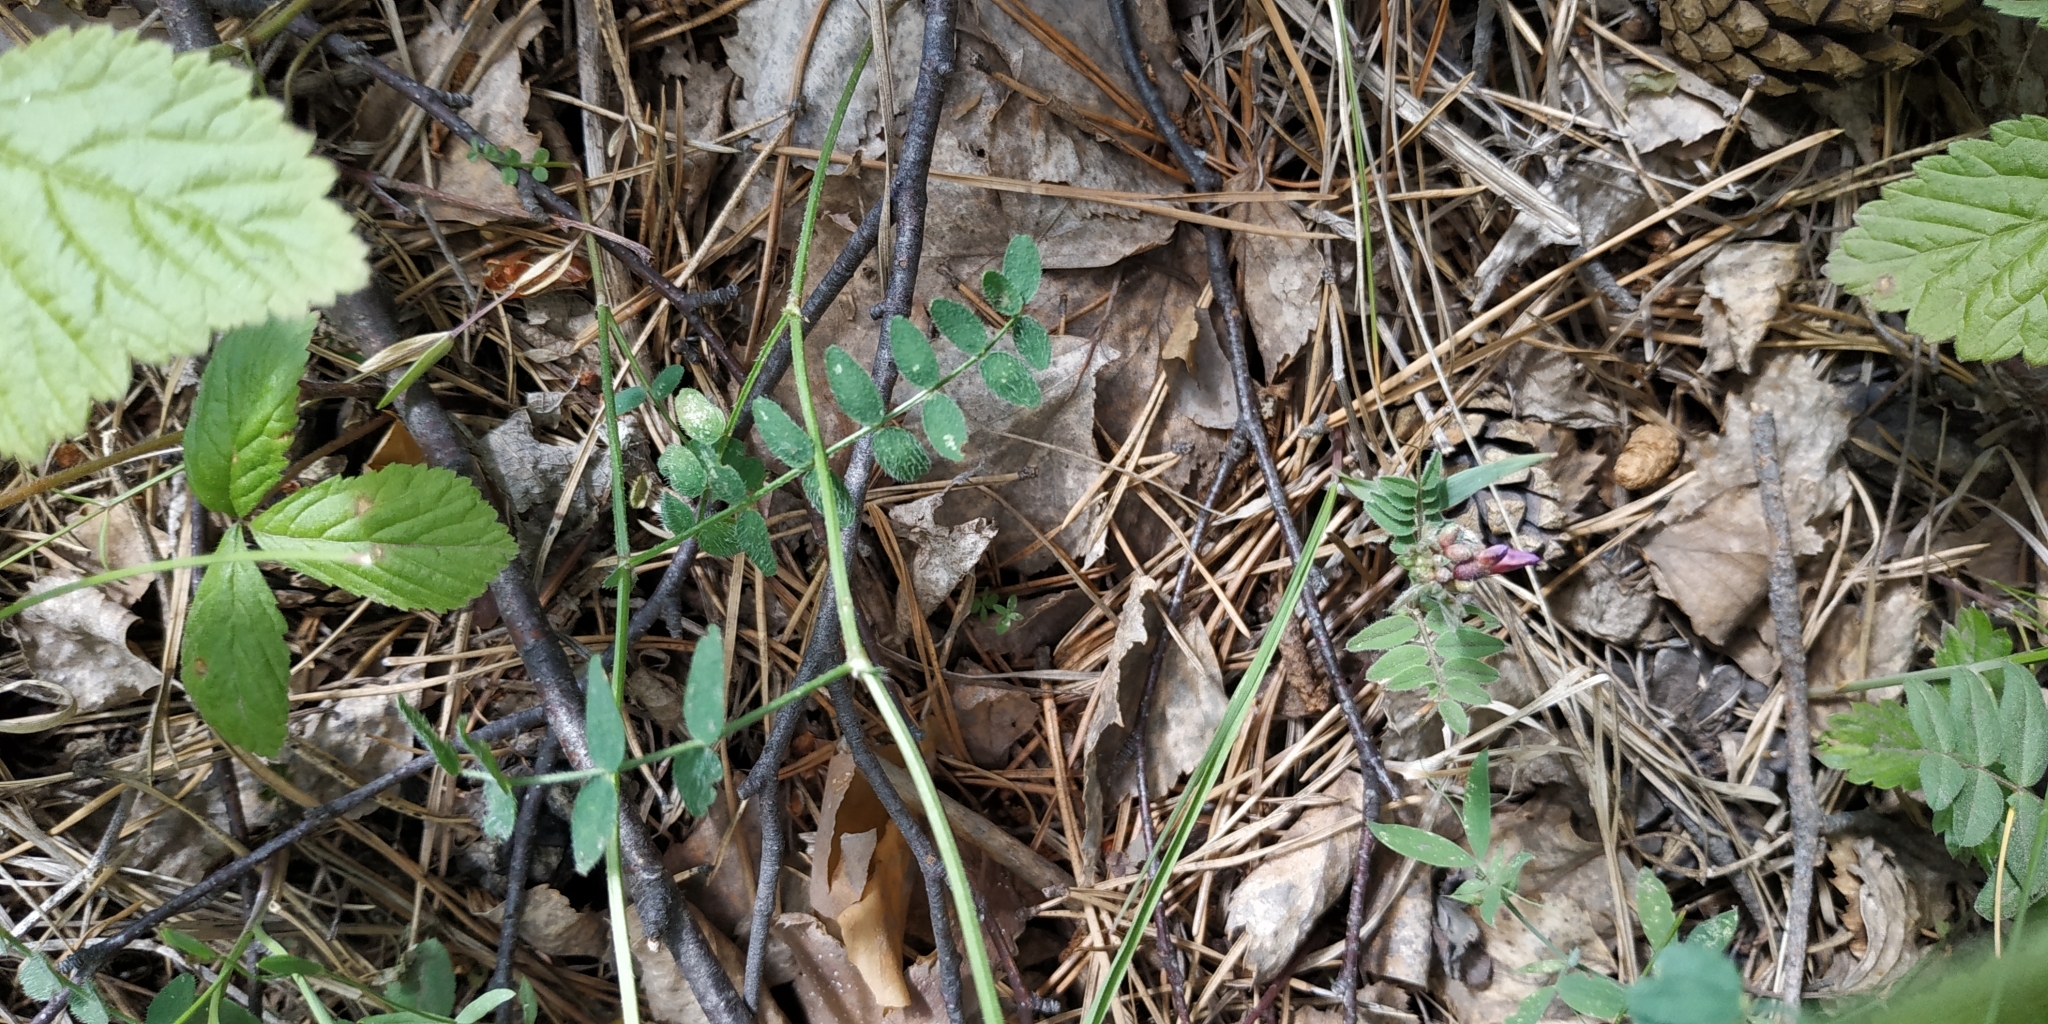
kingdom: Plantae
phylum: Tracheophyta
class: Magnoliopsida
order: Fabales
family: Fabaceae
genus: Astragalus
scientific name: Astragalus danicus
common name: Purple milk-vetch
